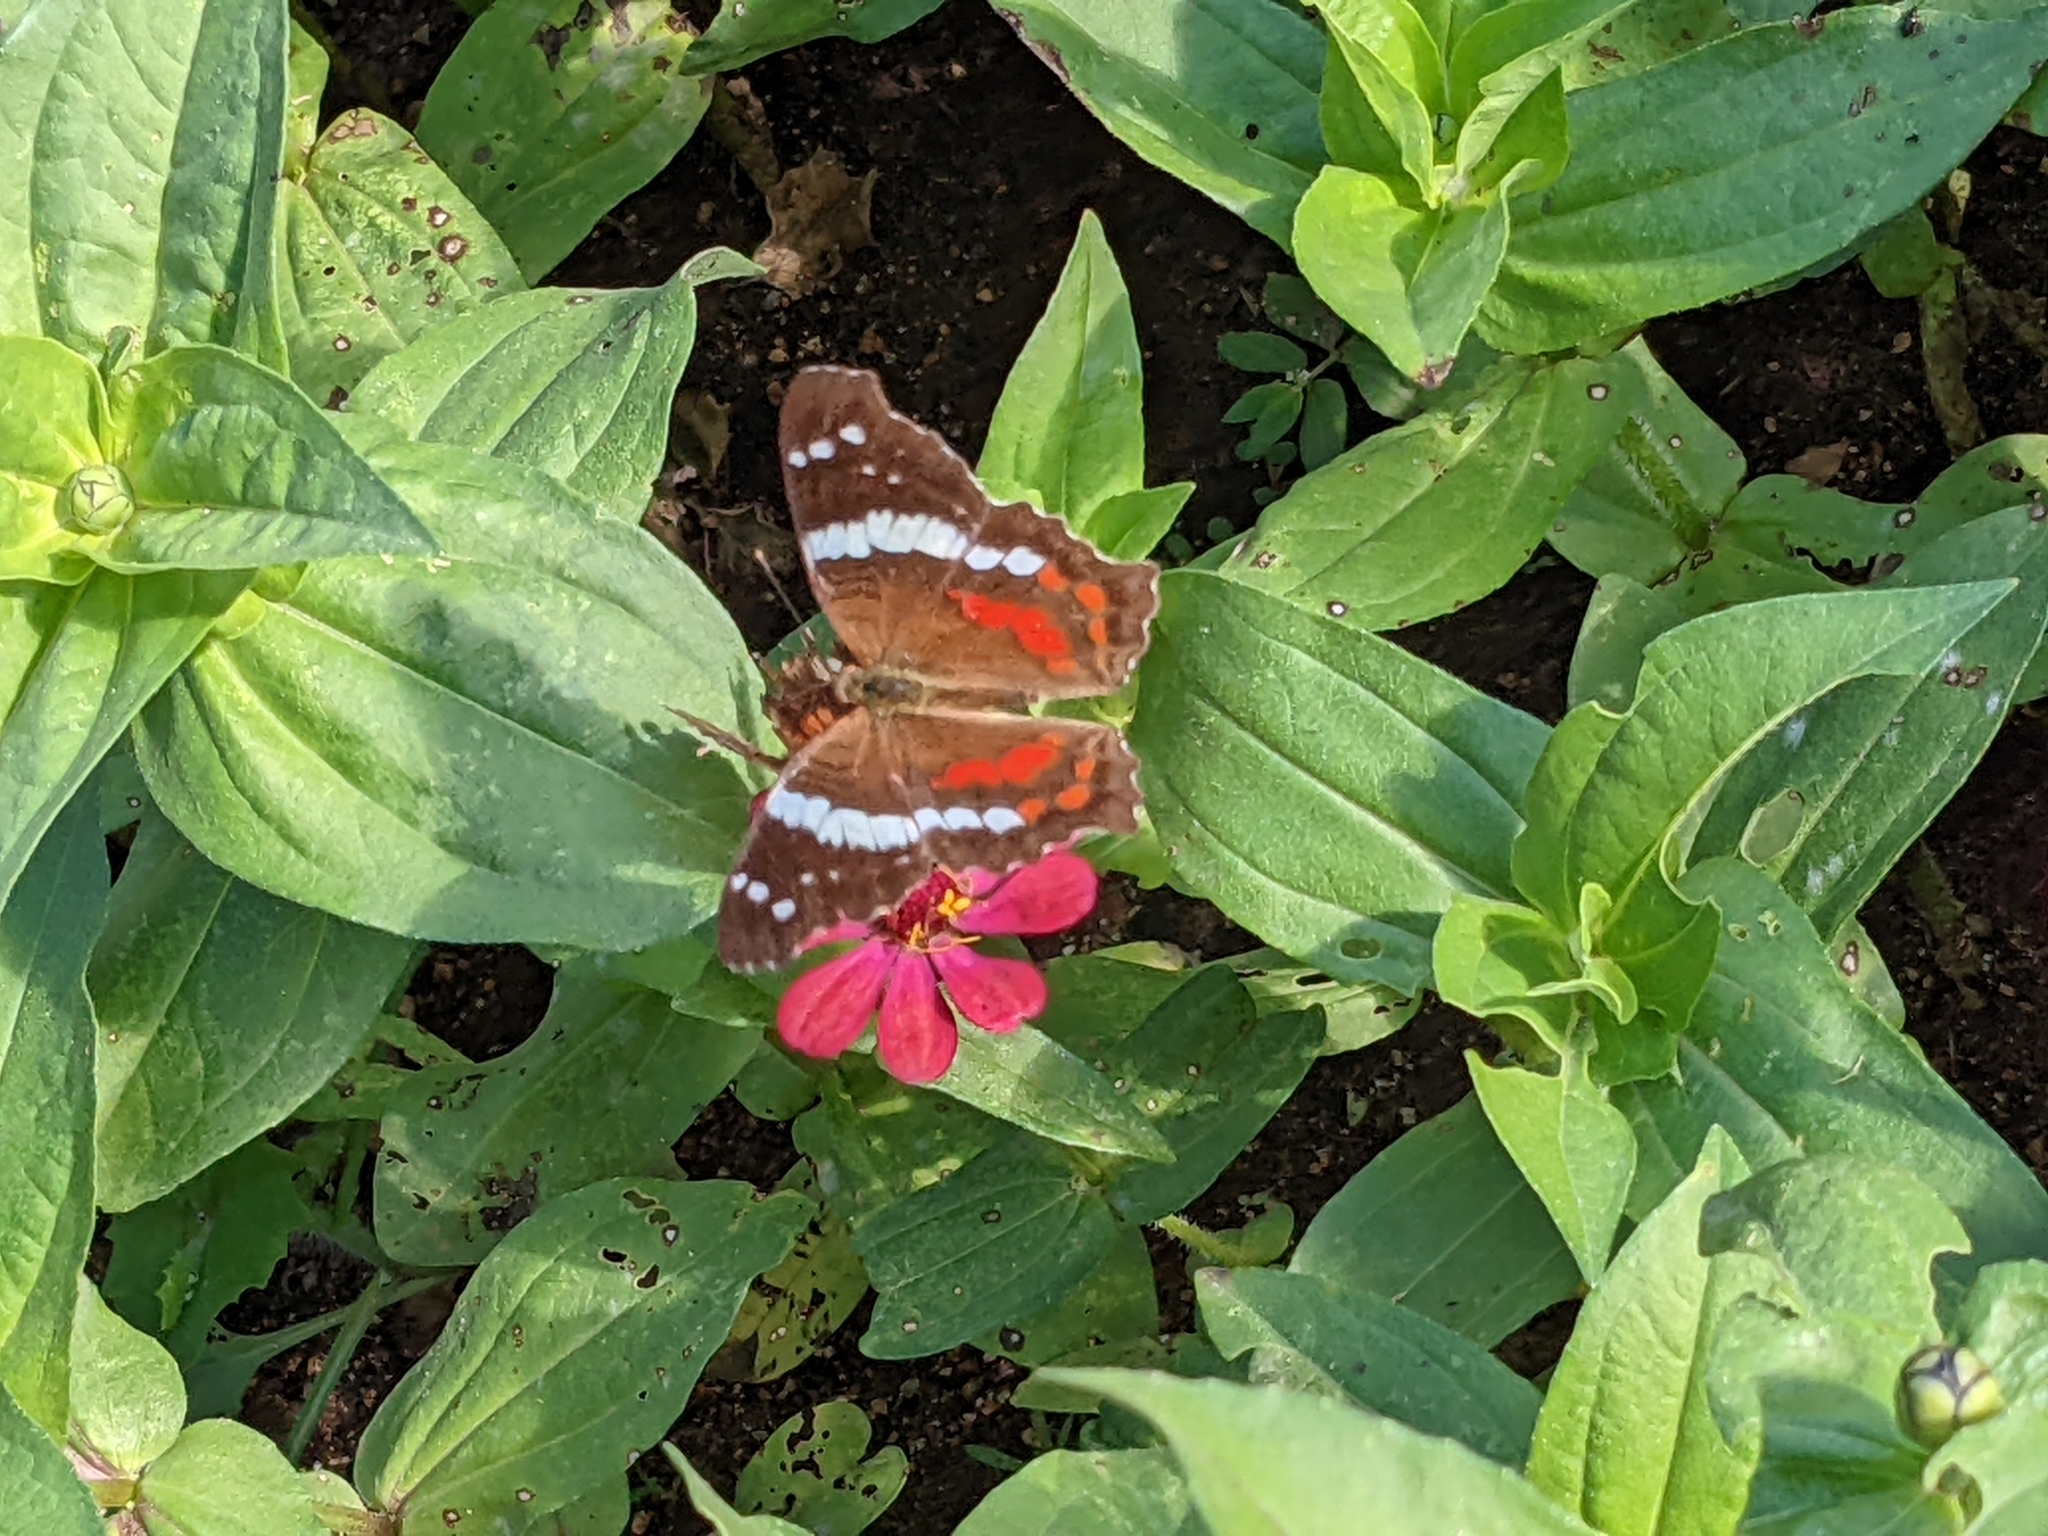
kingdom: Animalia
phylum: Arthropoda
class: Insecta
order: Lepidoptera
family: Nymphalidae
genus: Anartia
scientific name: Anartia fatima
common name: Banded peacock
